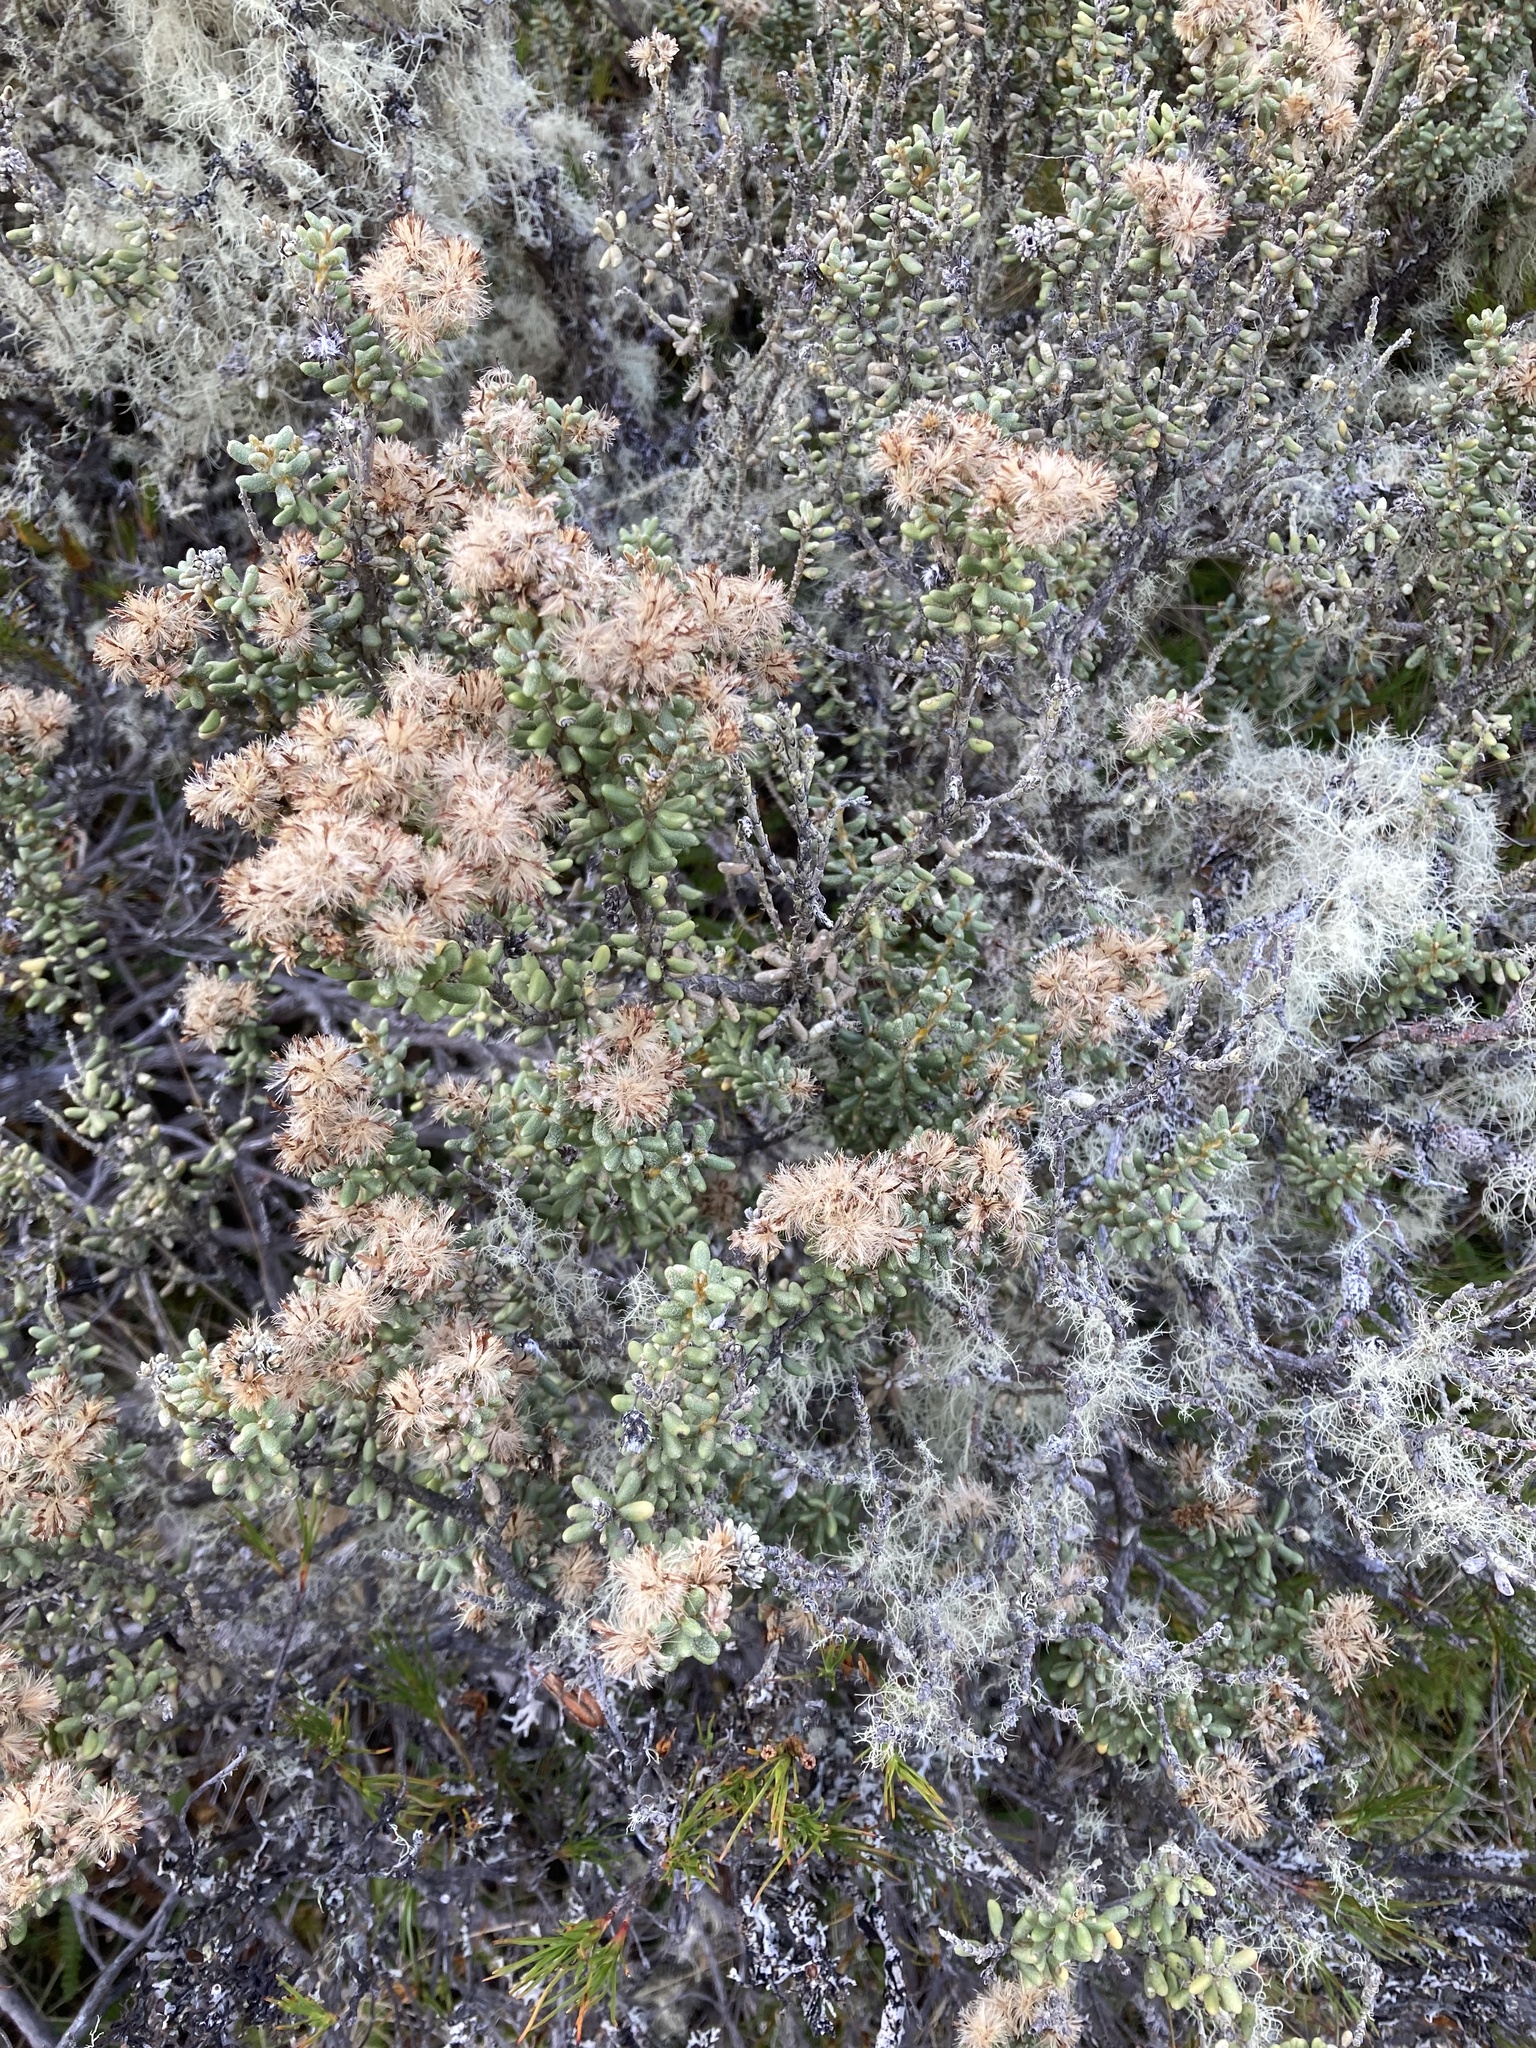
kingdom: Plantae
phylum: Tracheophyta
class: Magnoliopsida
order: Asterales
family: Asteraceae
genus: Olearia
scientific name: Olearia cymbifolia
